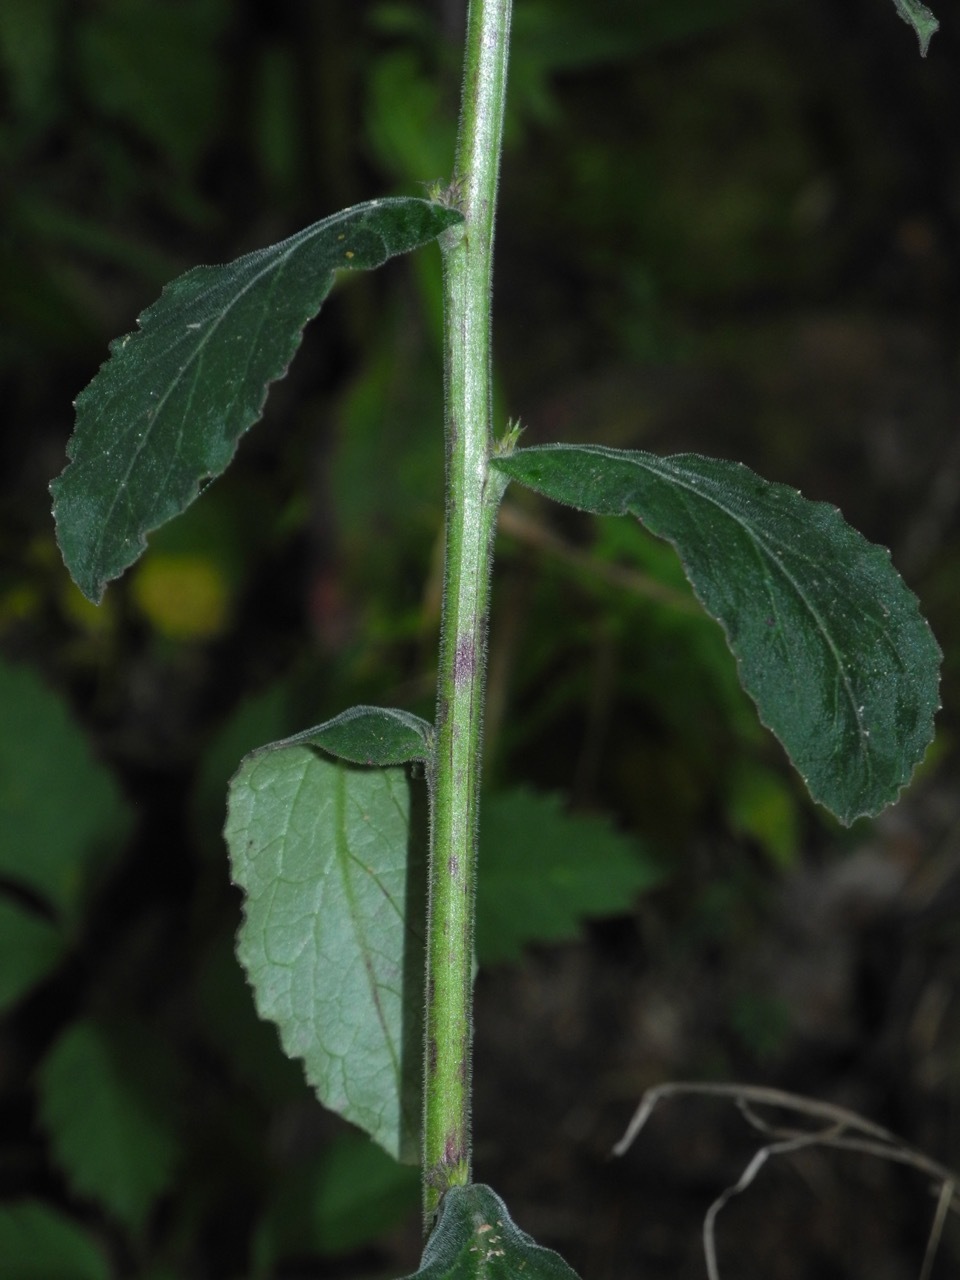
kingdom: Plantae
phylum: Tracheophyta
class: Magnoliopsida
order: Asterales
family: Campanulaceae
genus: Lobelia
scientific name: Lobelia puberula
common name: Purple dewdrop
